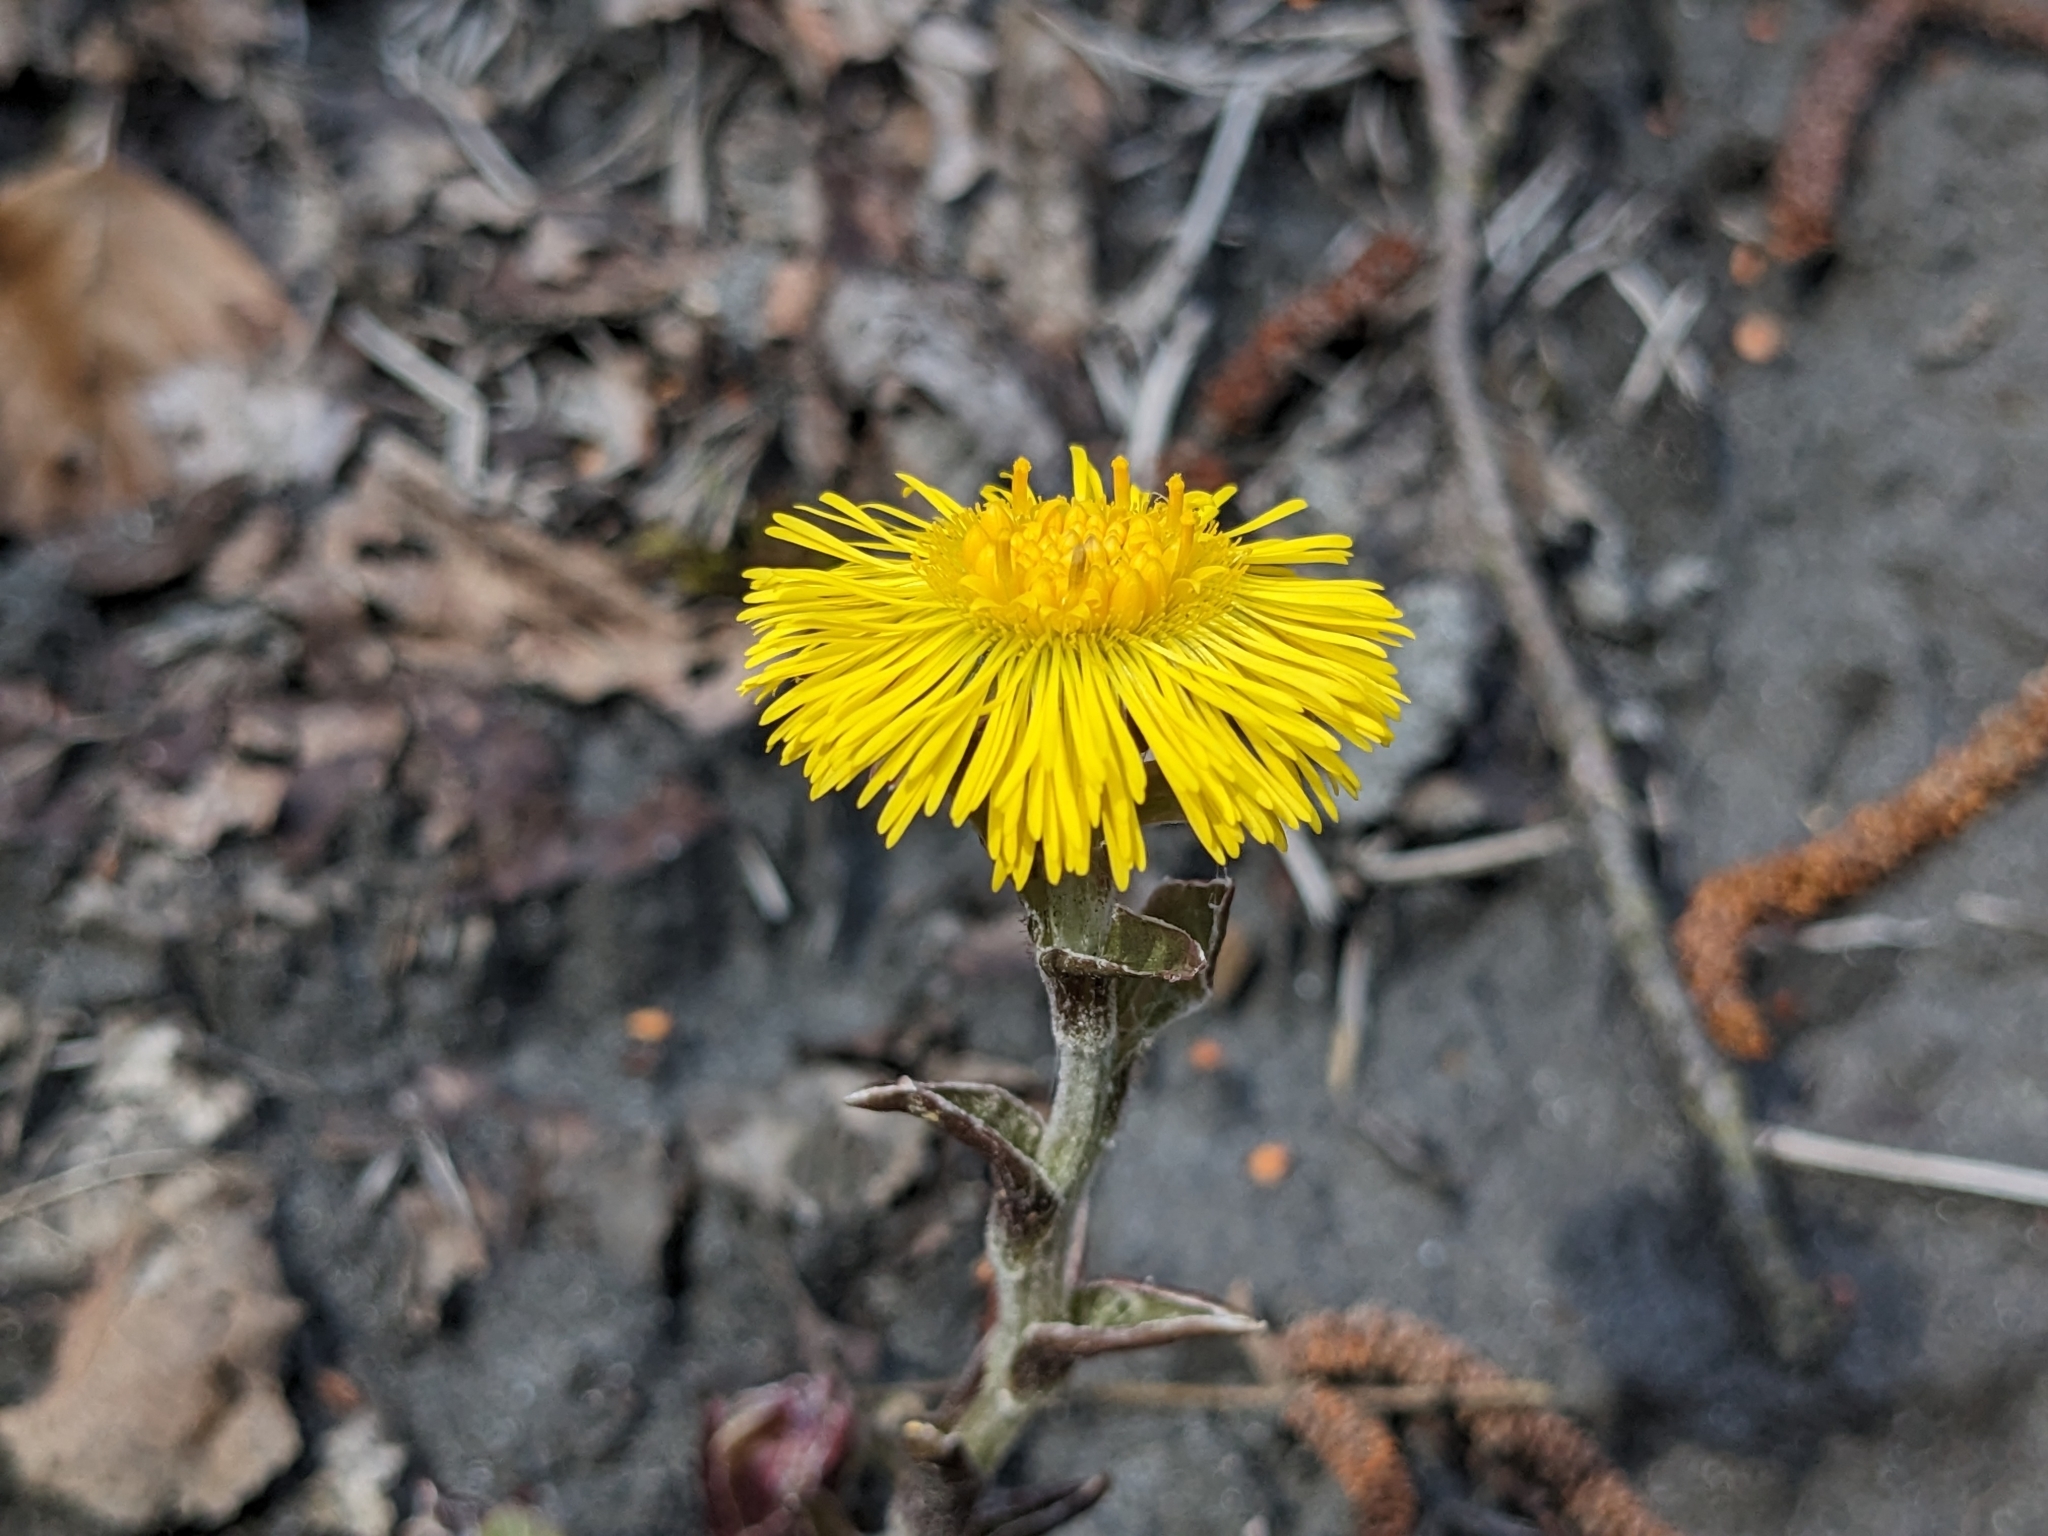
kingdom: Plantae
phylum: Tracheophyta
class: Magnoliopsida
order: Asterales
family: Asteraceae
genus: Tussilago
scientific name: Tussilago farfara
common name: Coltsfoot
